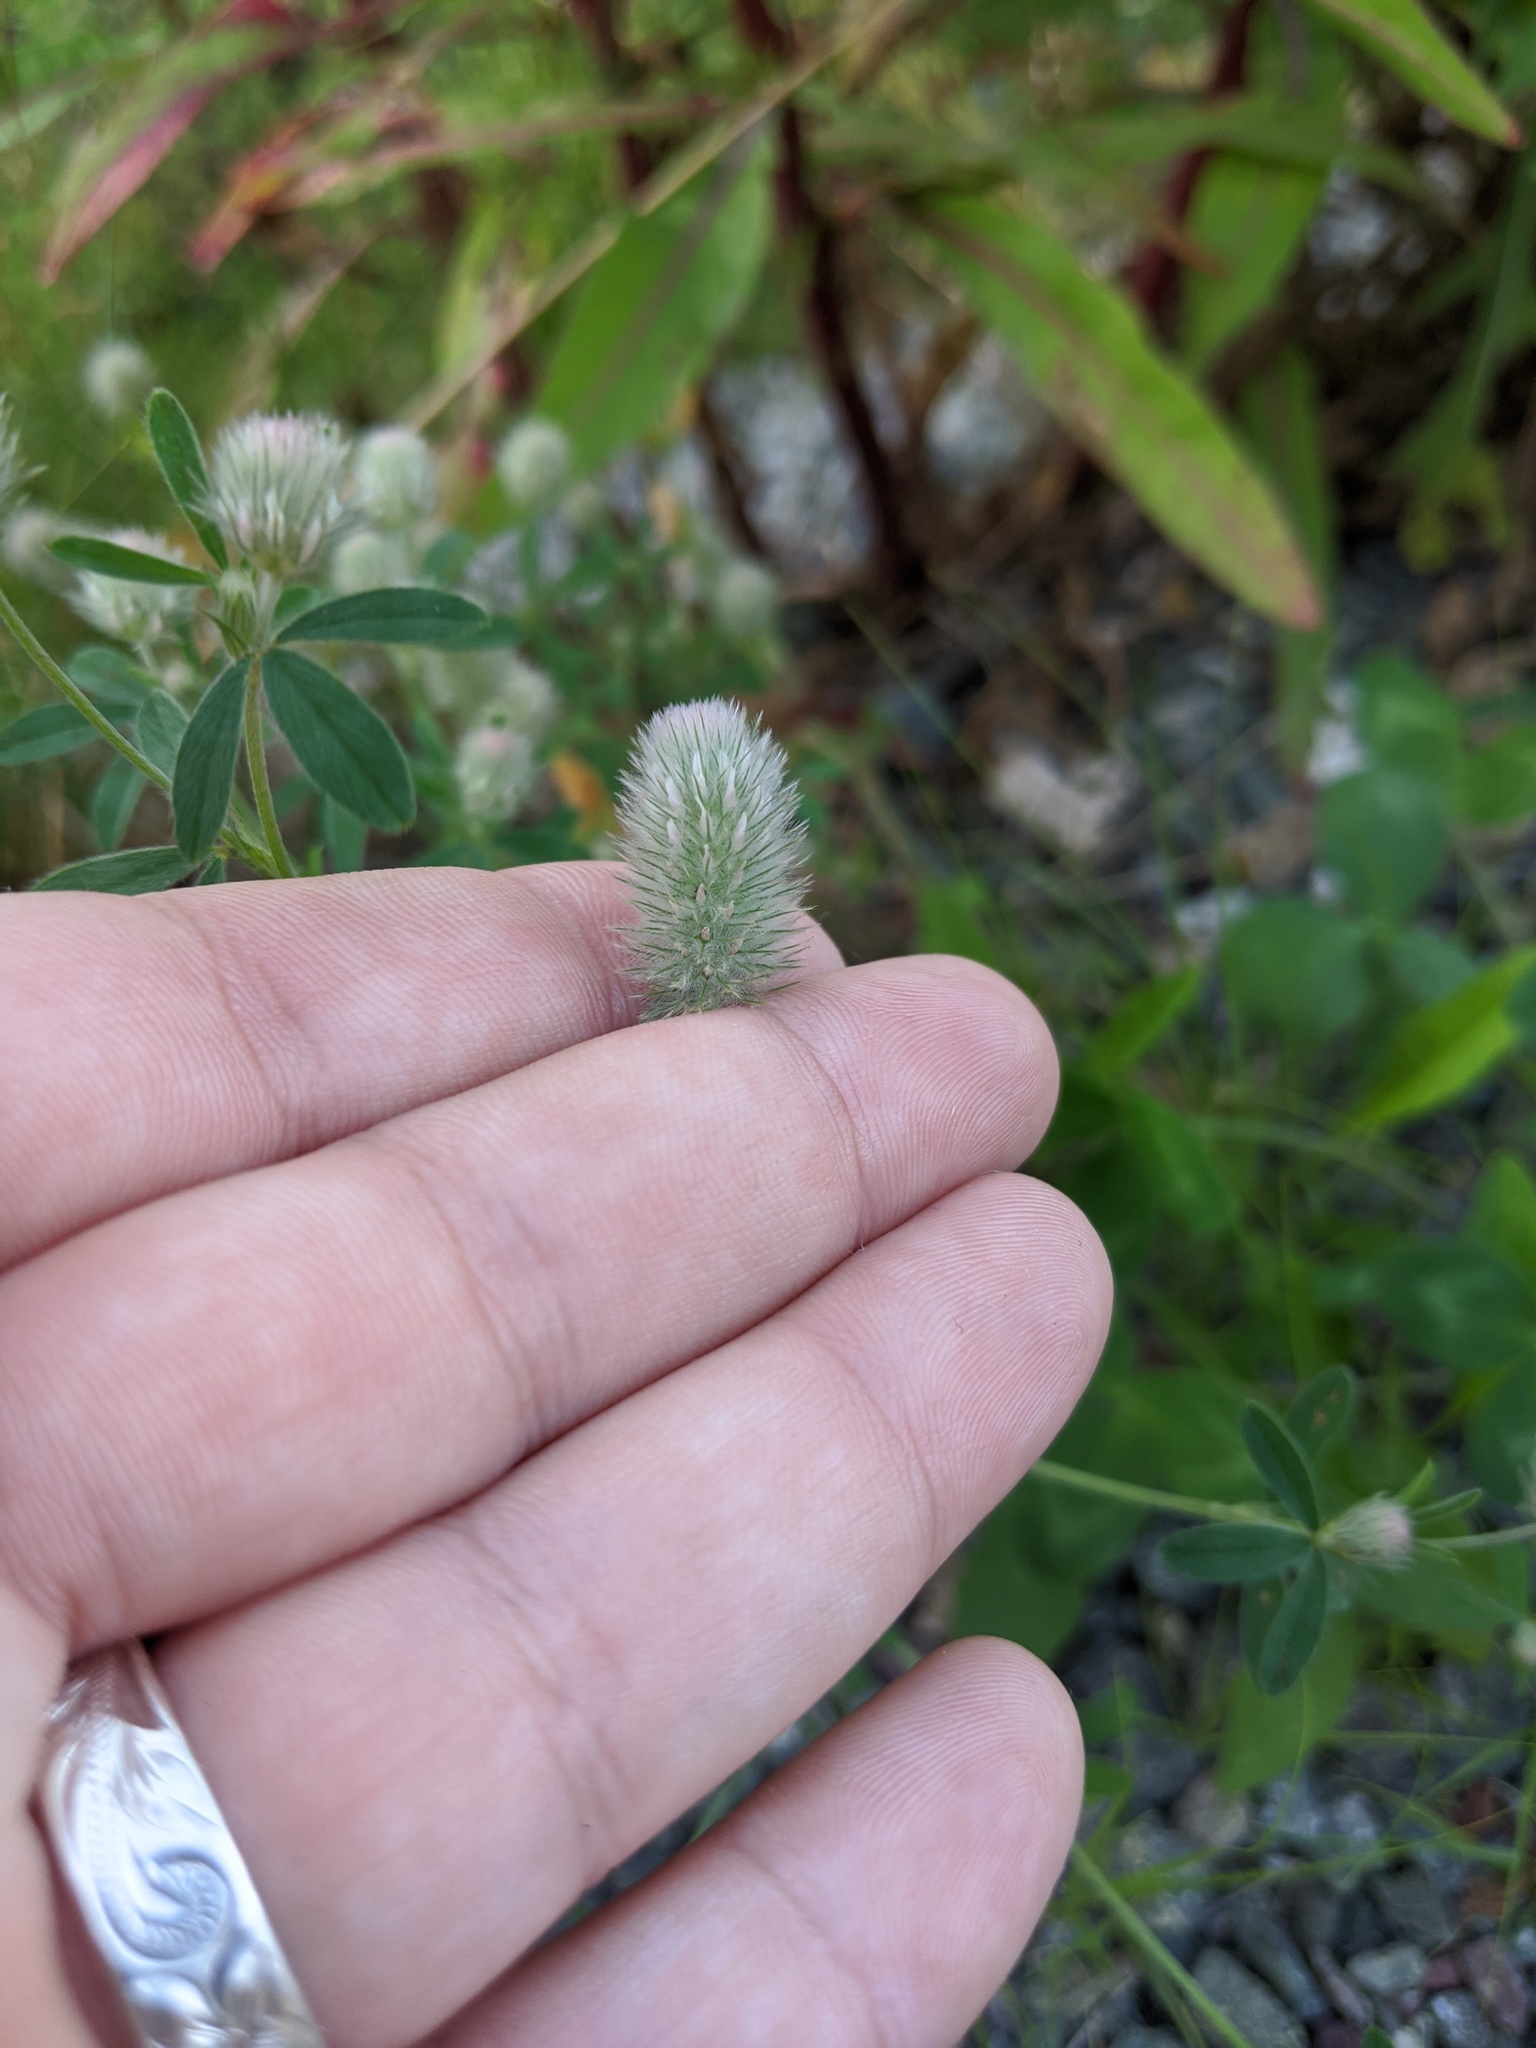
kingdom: Plantae
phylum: Tracheophyta
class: Magnoliopsida
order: Fabales
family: Fabaceae
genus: Trifolium
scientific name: Trifolium arvense
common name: Hare's-foot clover
